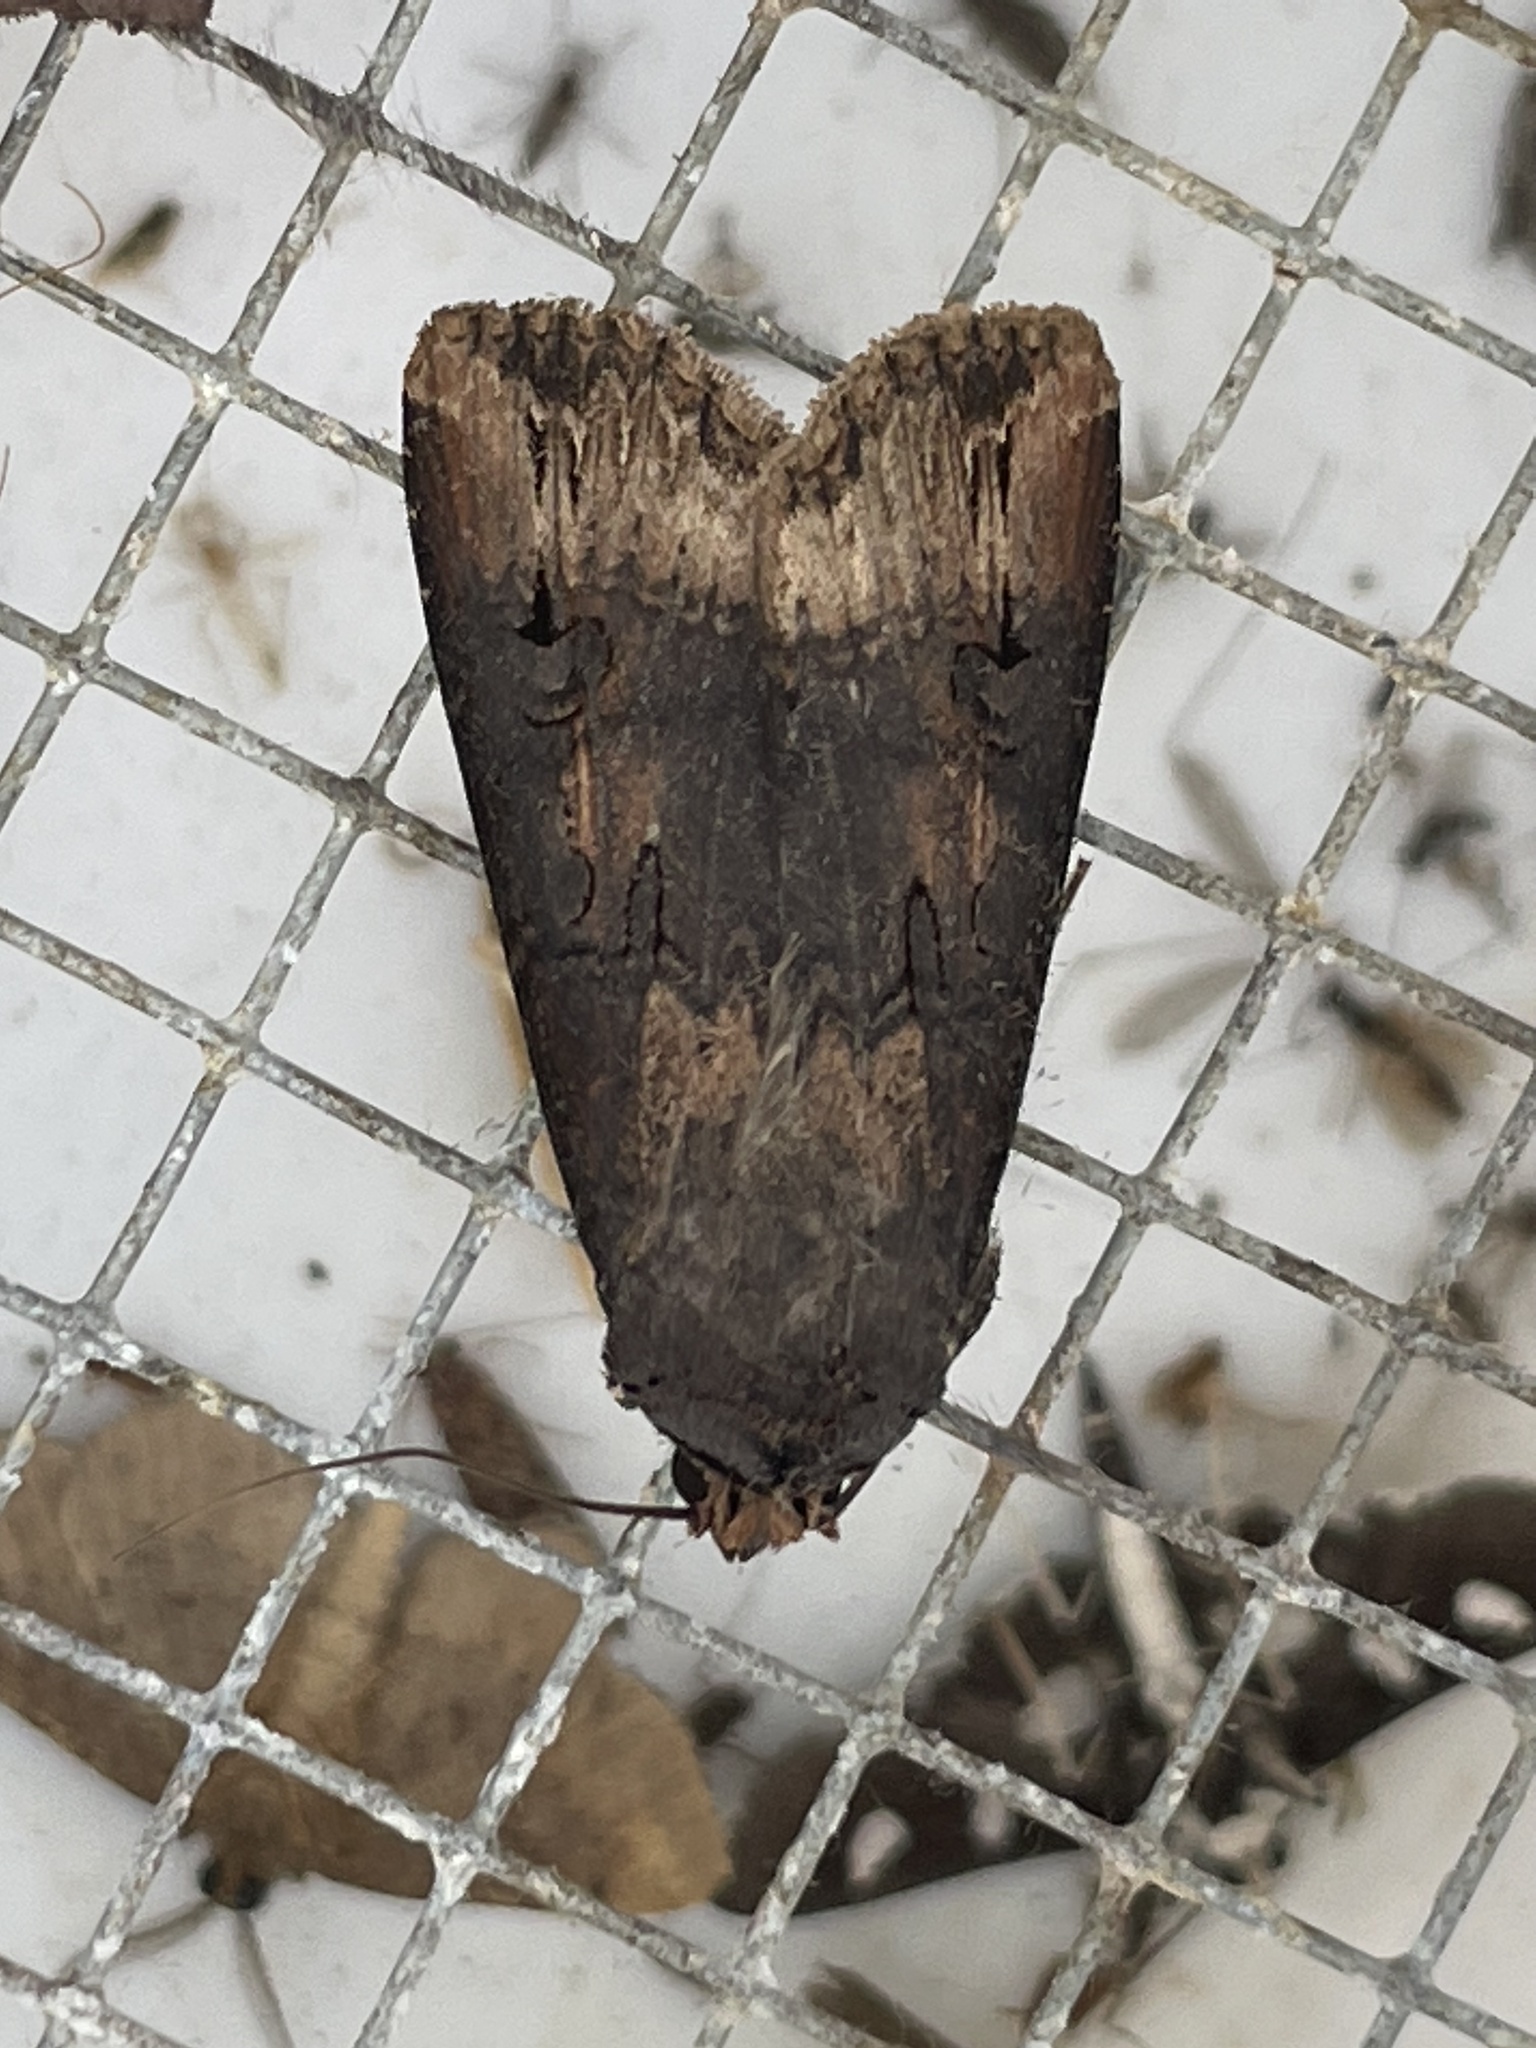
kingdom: Animalia
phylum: Arthropoda
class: Insecta
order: Lepidoptera
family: Noctuidae
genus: Agrotis
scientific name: Agrotis ipsilon
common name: Dark sword-grass
